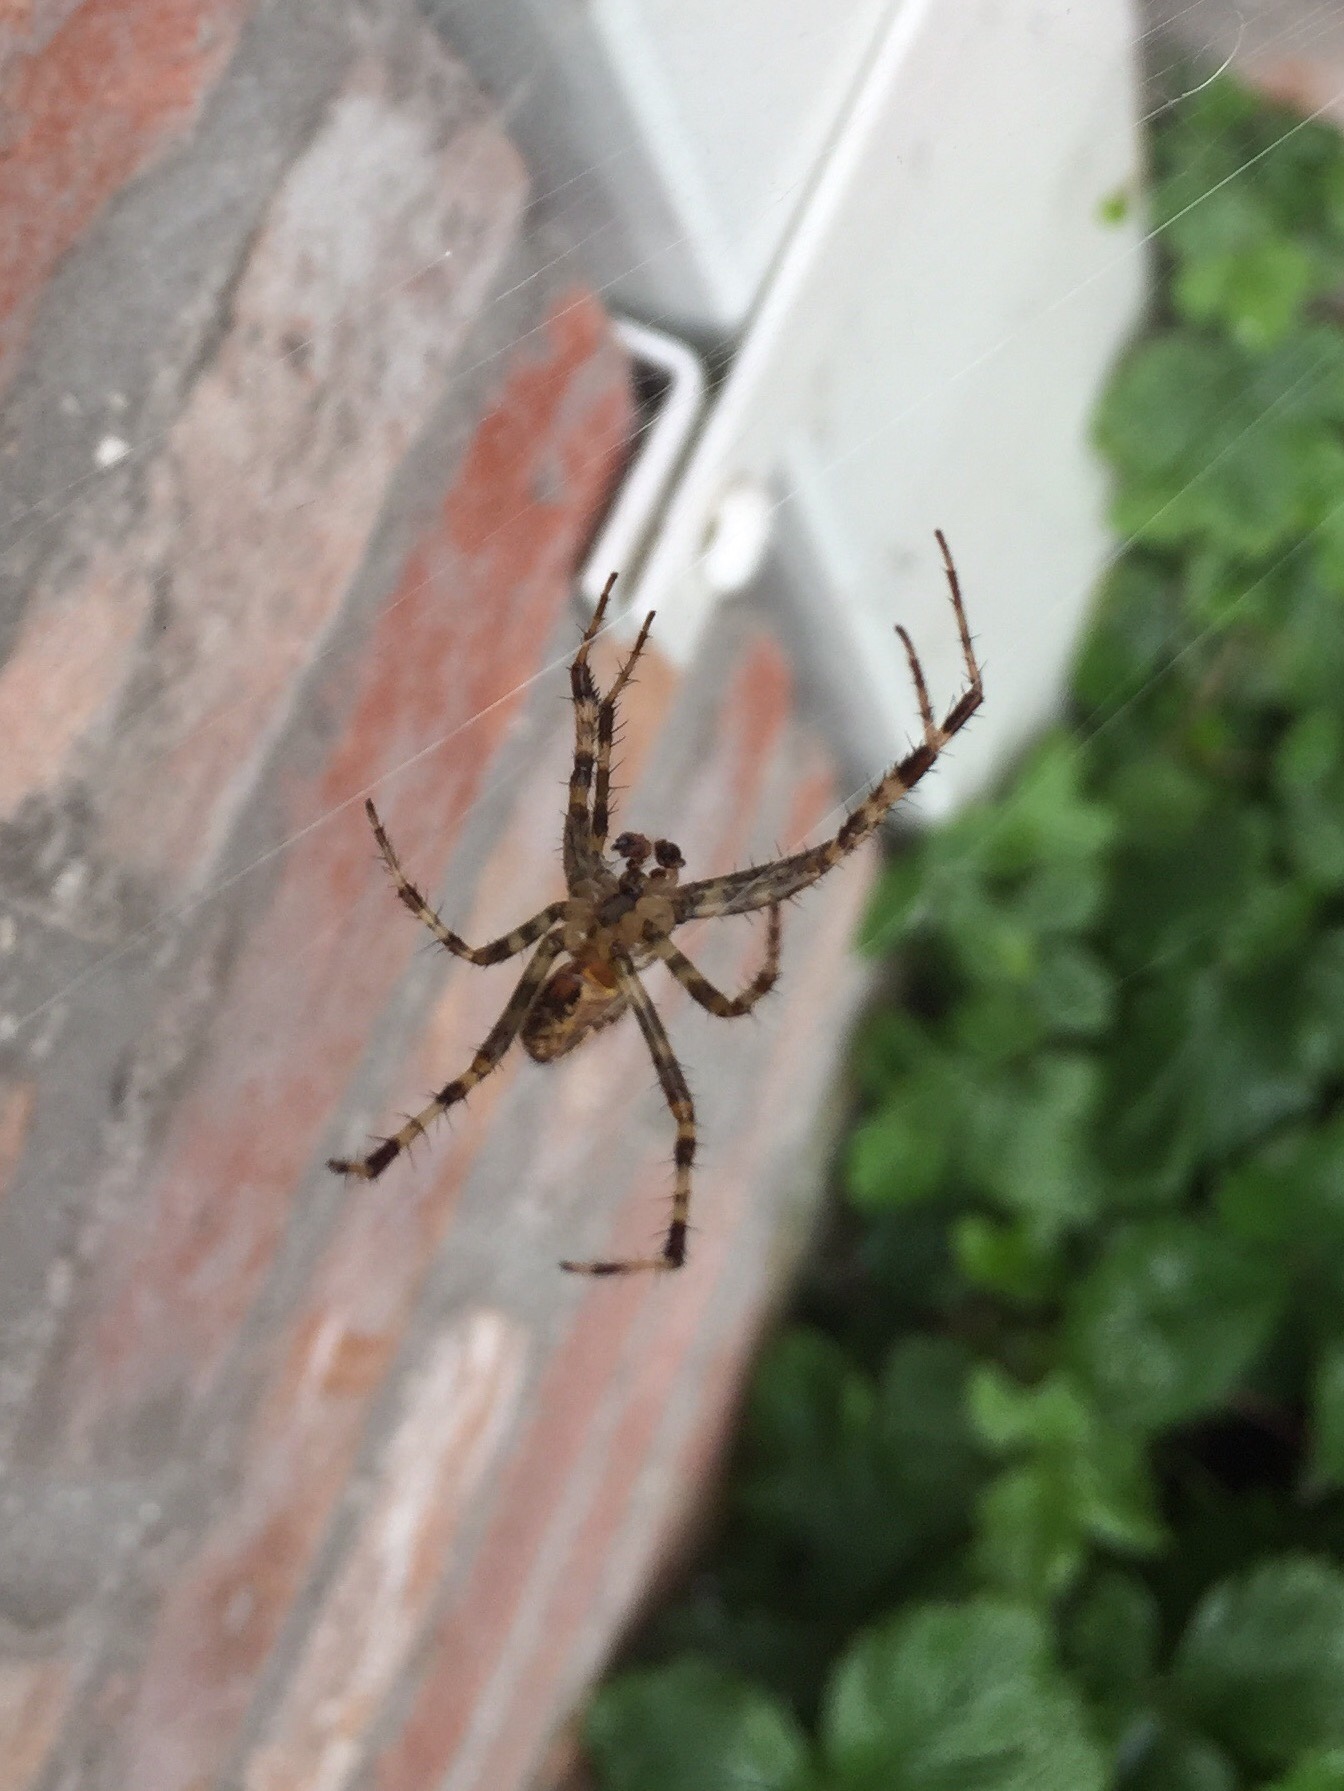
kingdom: Animalia
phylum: Arthropoda
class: Arachnida
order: Araneae
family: Araneidae
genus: Araneus
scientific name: Araneus diadematus
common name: Cross orbweaver
